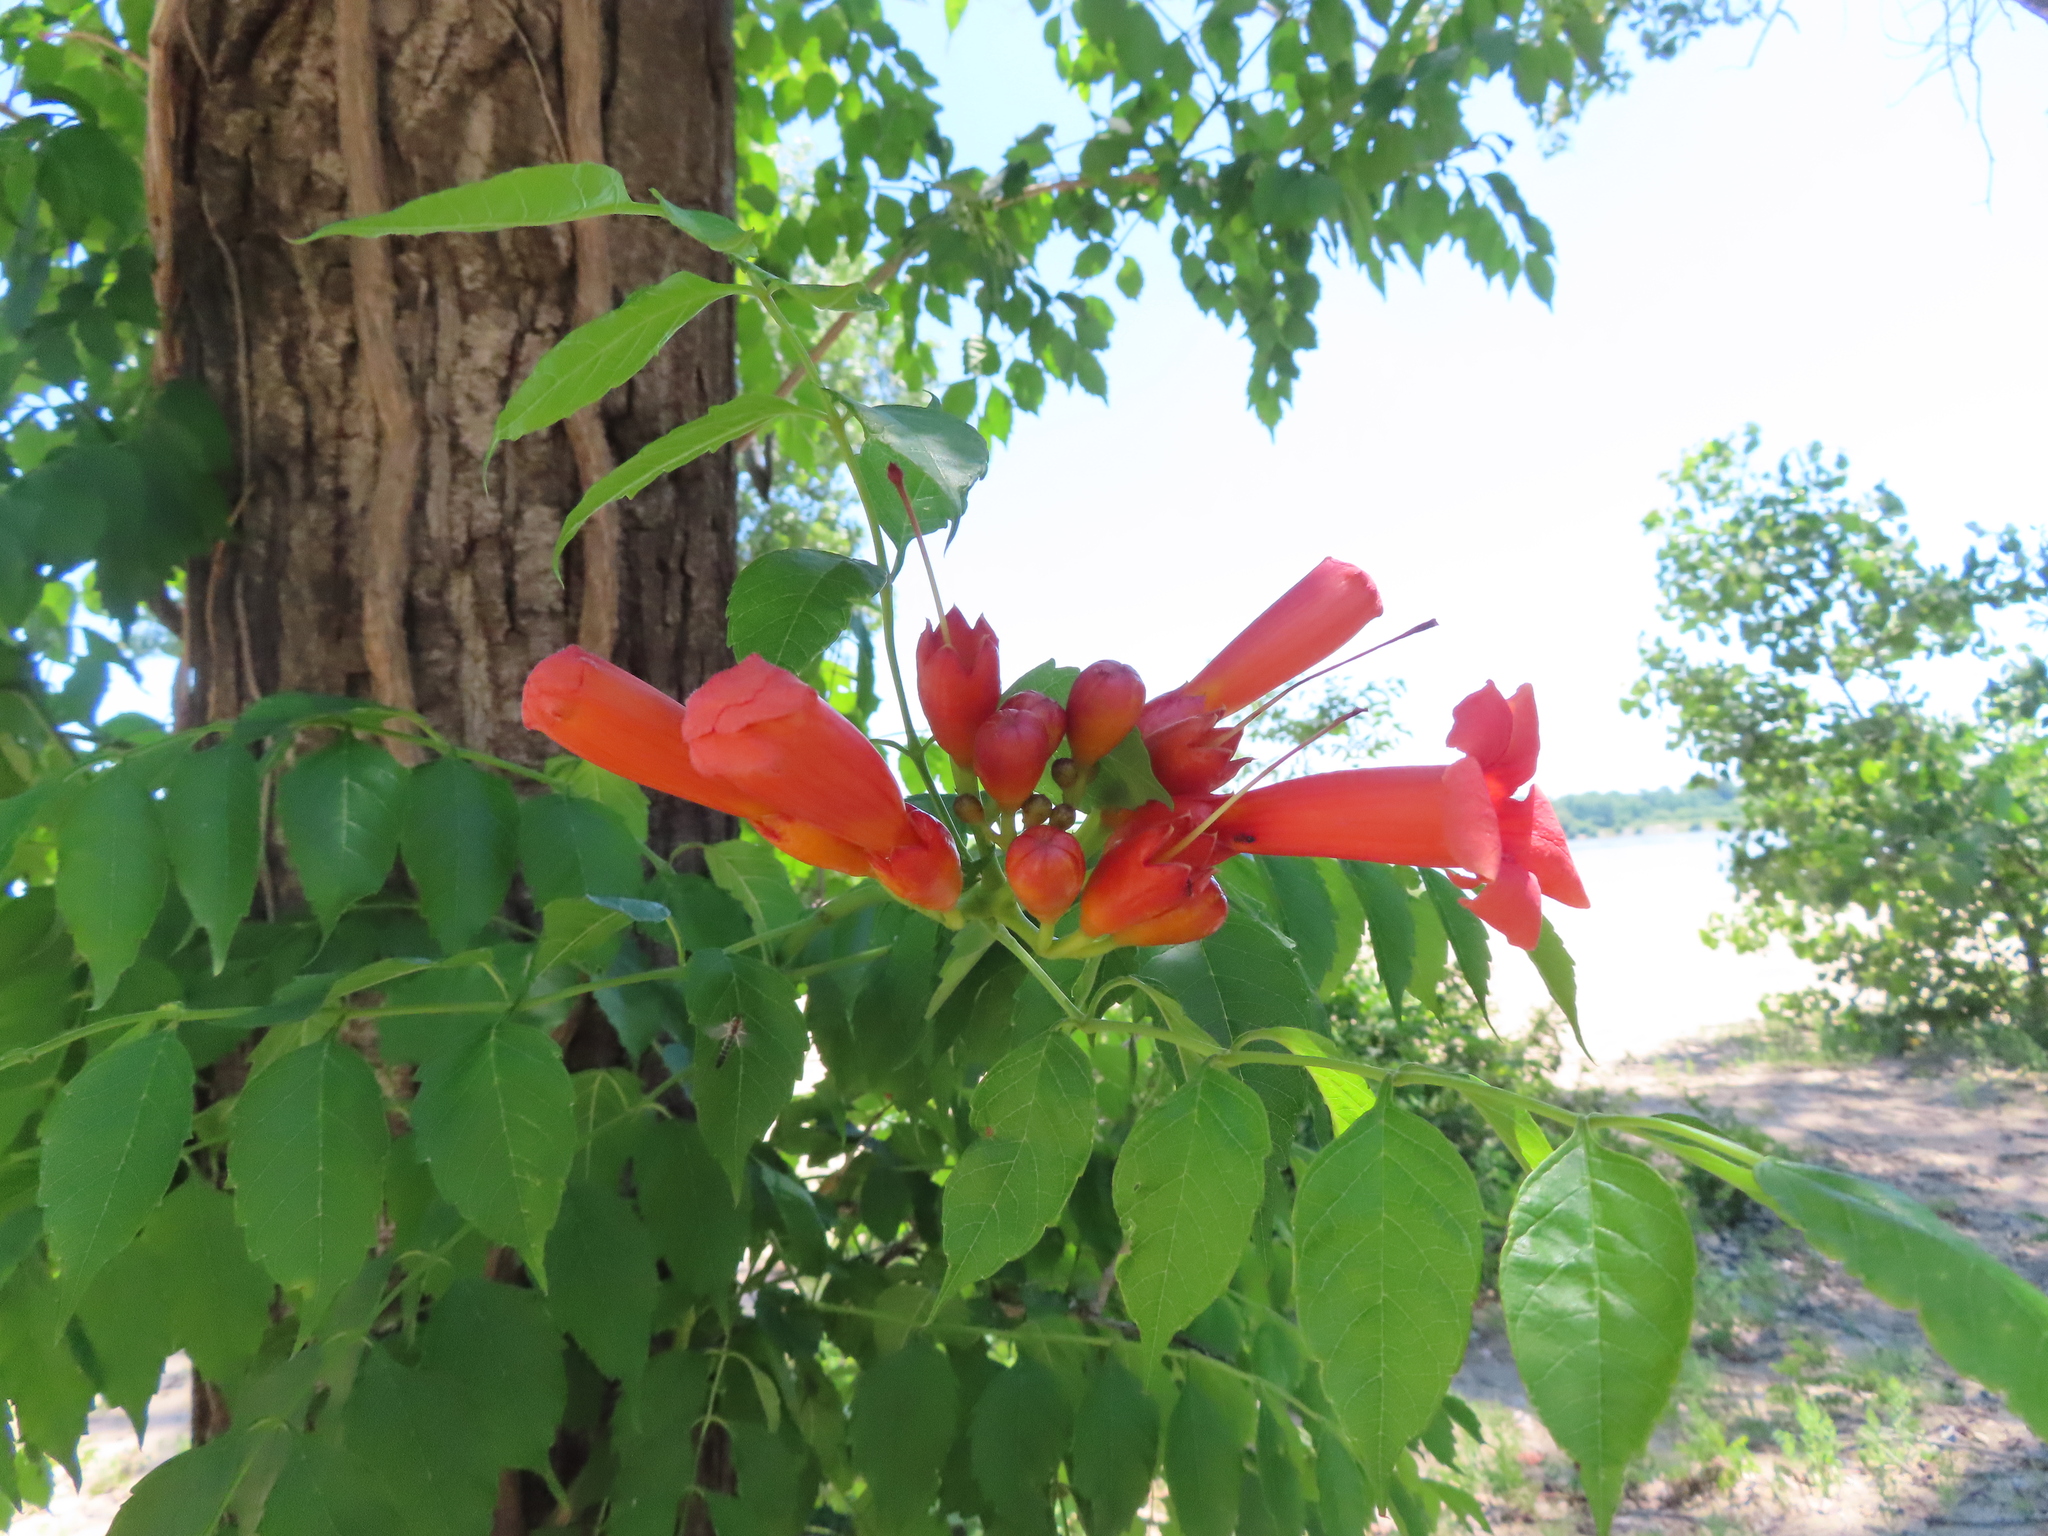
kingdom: Plantae
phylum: Tracheophyta
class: Magnoliopsida
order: Lamiales
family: Bignoniaceae
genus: Campsis
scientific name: Campsis radicans
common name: Trumpet-creeper
